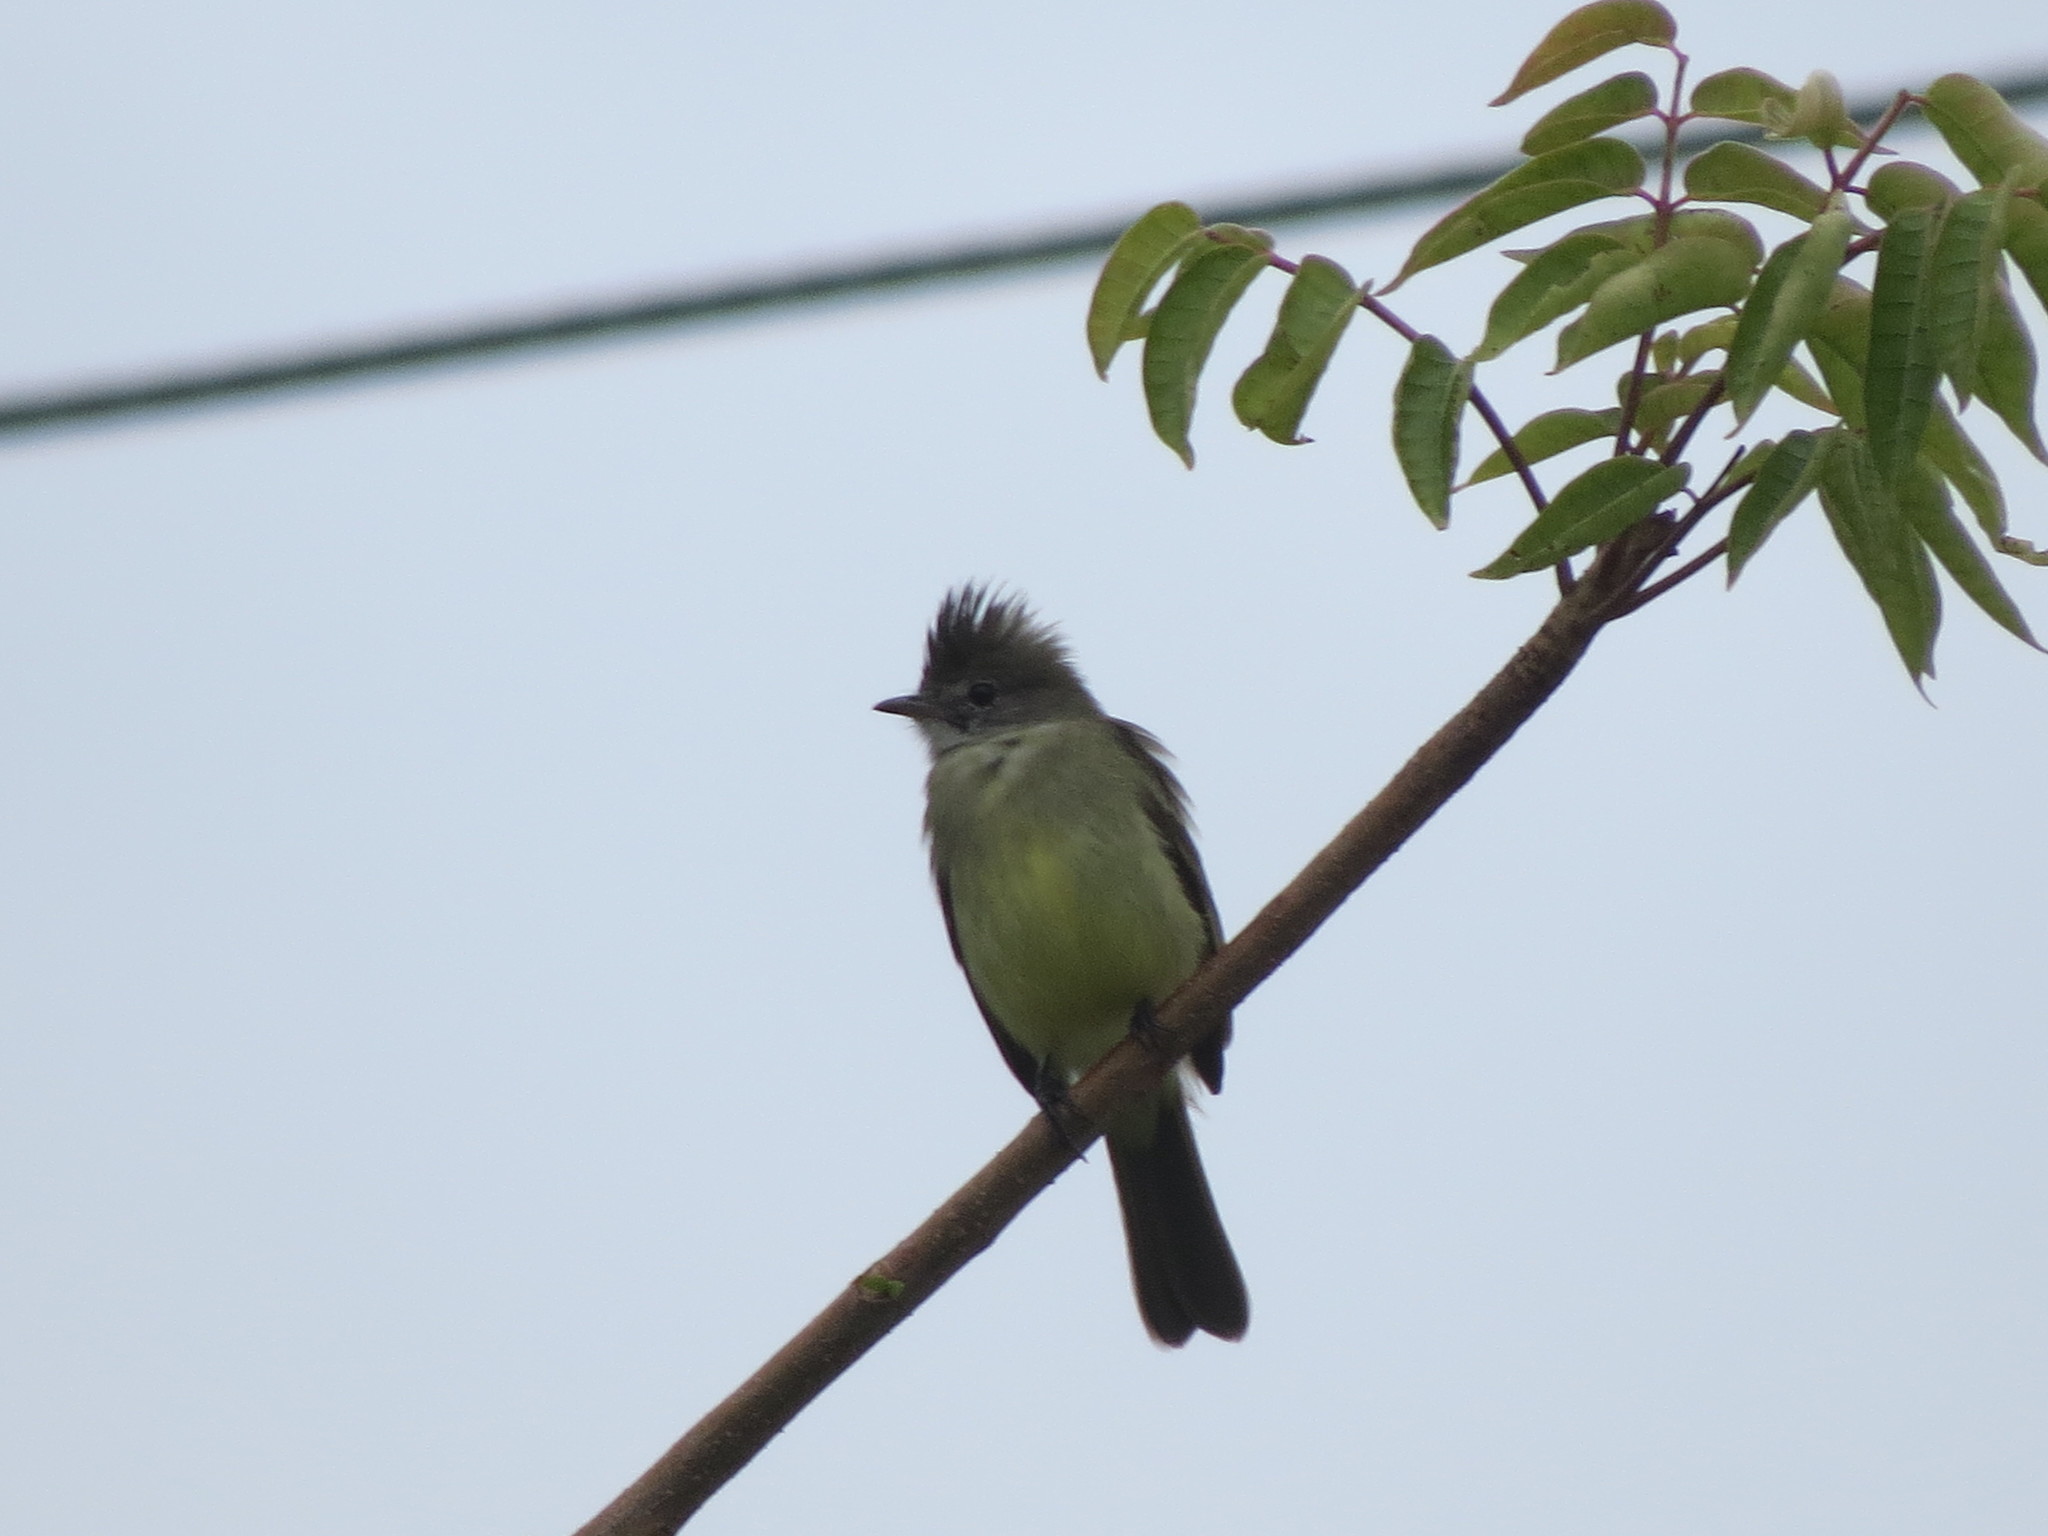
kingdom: Animalia
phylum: Chordata
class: Aves
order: Passeriformes
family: Tyrannidae
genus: Elaenia
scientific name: Elaenia flavogaster
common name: Yellow-bellied elaenia
